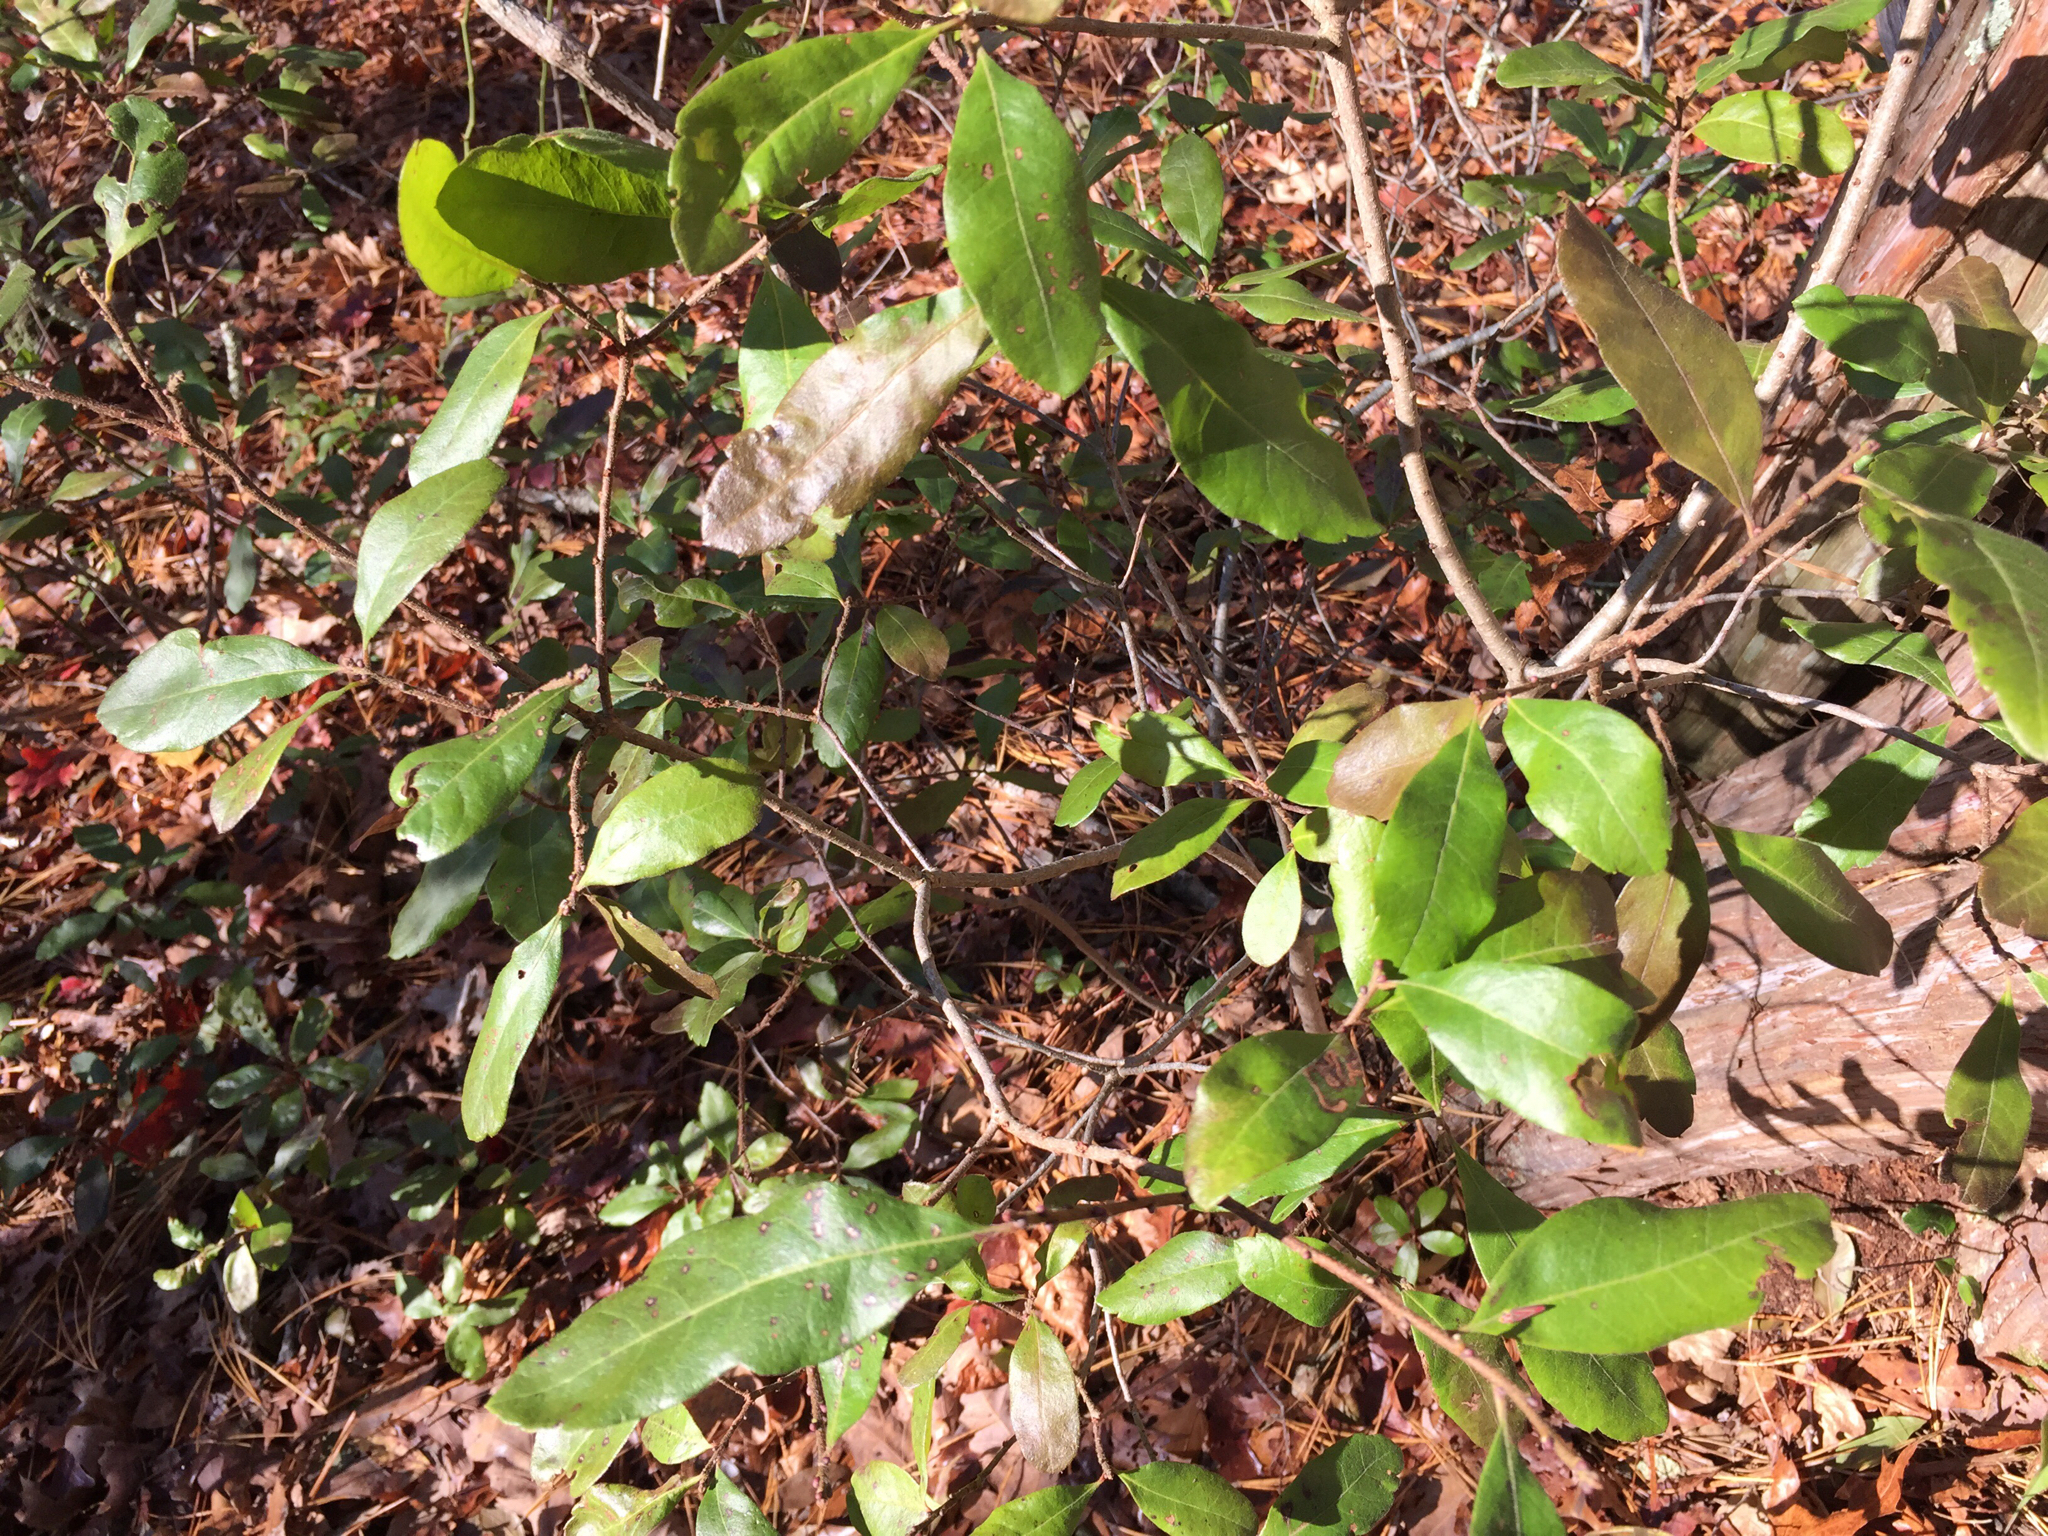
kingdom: Plantae
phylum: Tracheophyta
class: Magnoliopsida
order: Fagales
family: Myricaceae
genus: Morella
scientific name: Morella pensylvanica
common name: Northern bayberry
